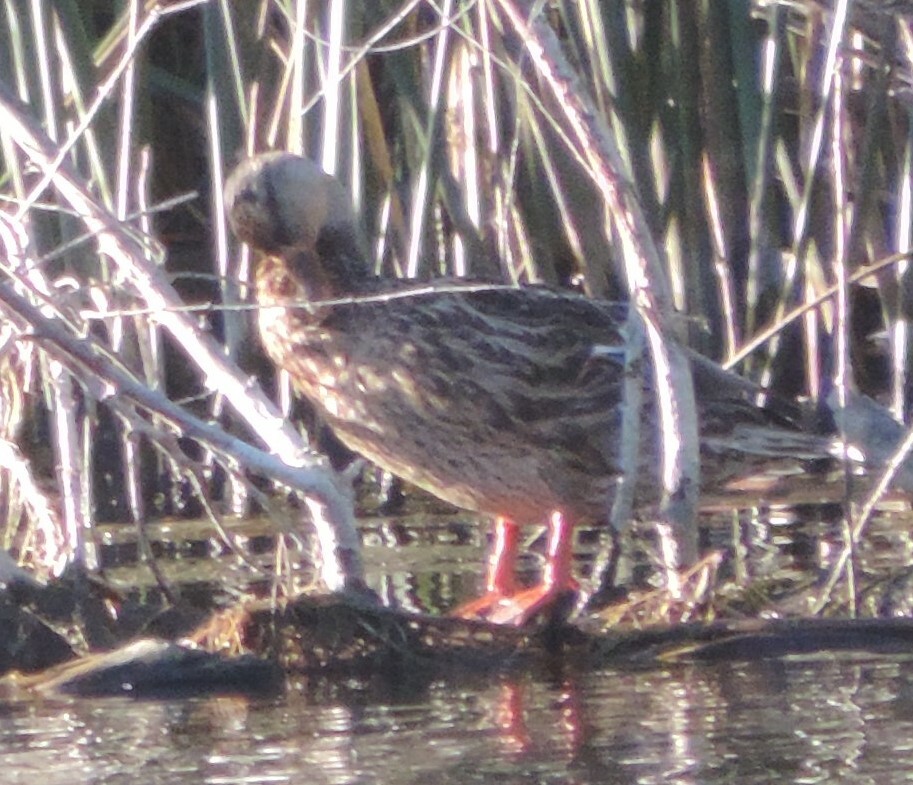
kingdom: Animalia
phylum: Chordata
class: Aves
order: Anseriformes
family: Anatidae
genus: Anas
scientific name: Anas platyrhynchos
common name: Mallard
